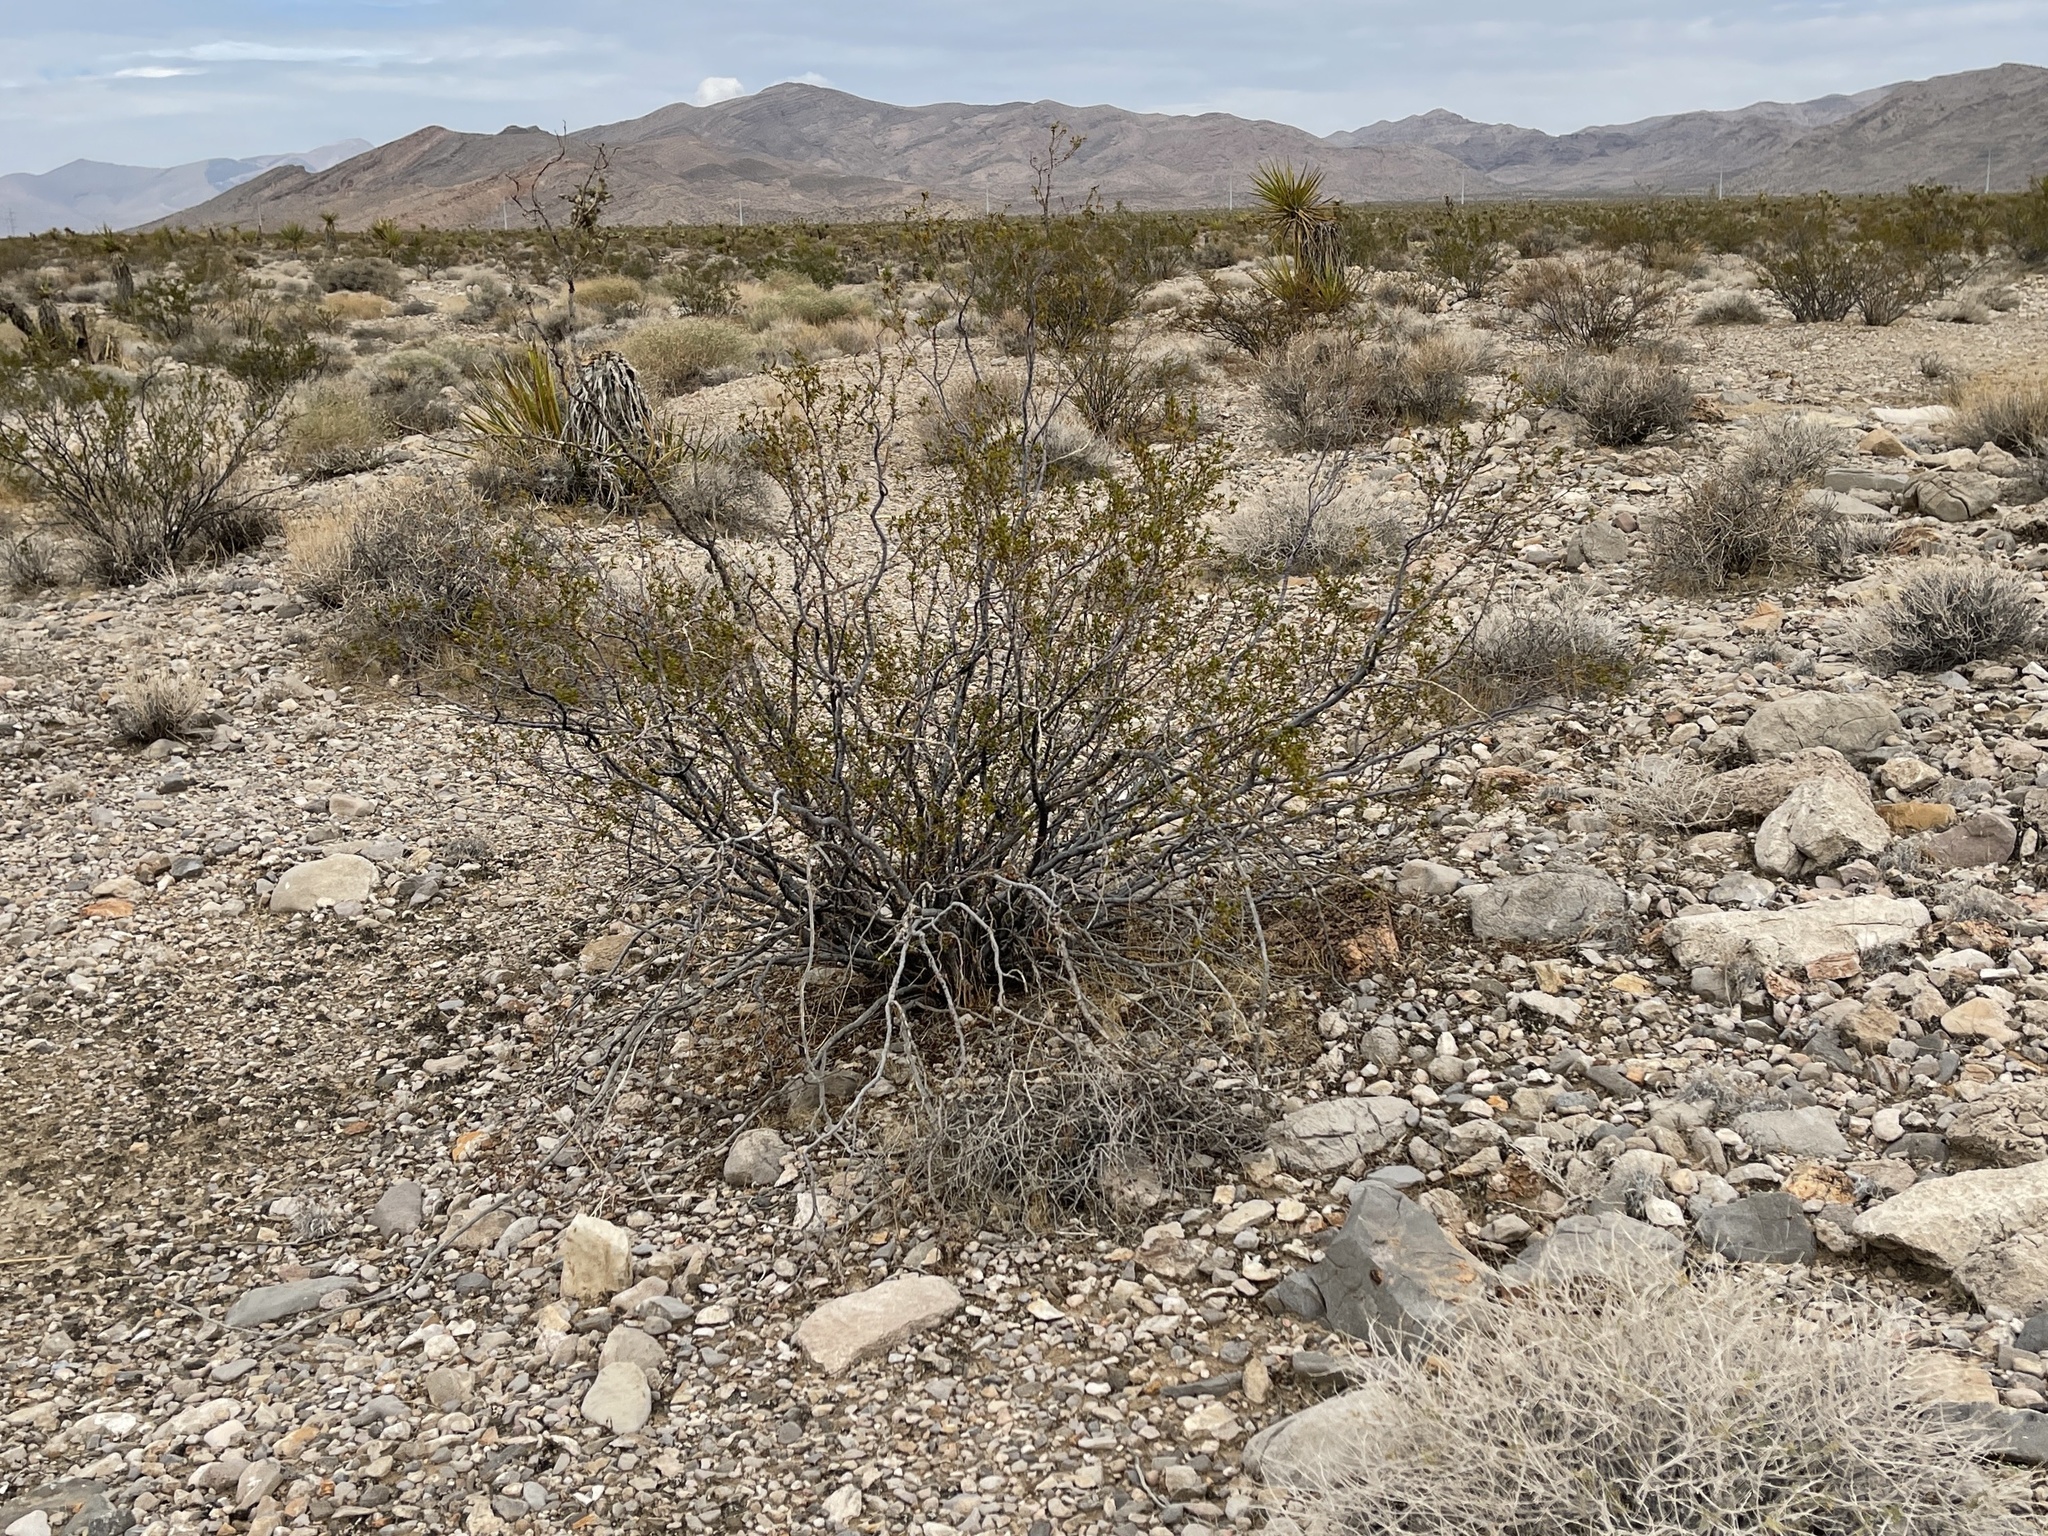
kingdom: Plantae
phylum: Tracheophyta
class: Magnoliopsida
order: Zygophyllales
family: Zygophyllaceae
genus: Larrea
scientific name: Larrea tridentata
